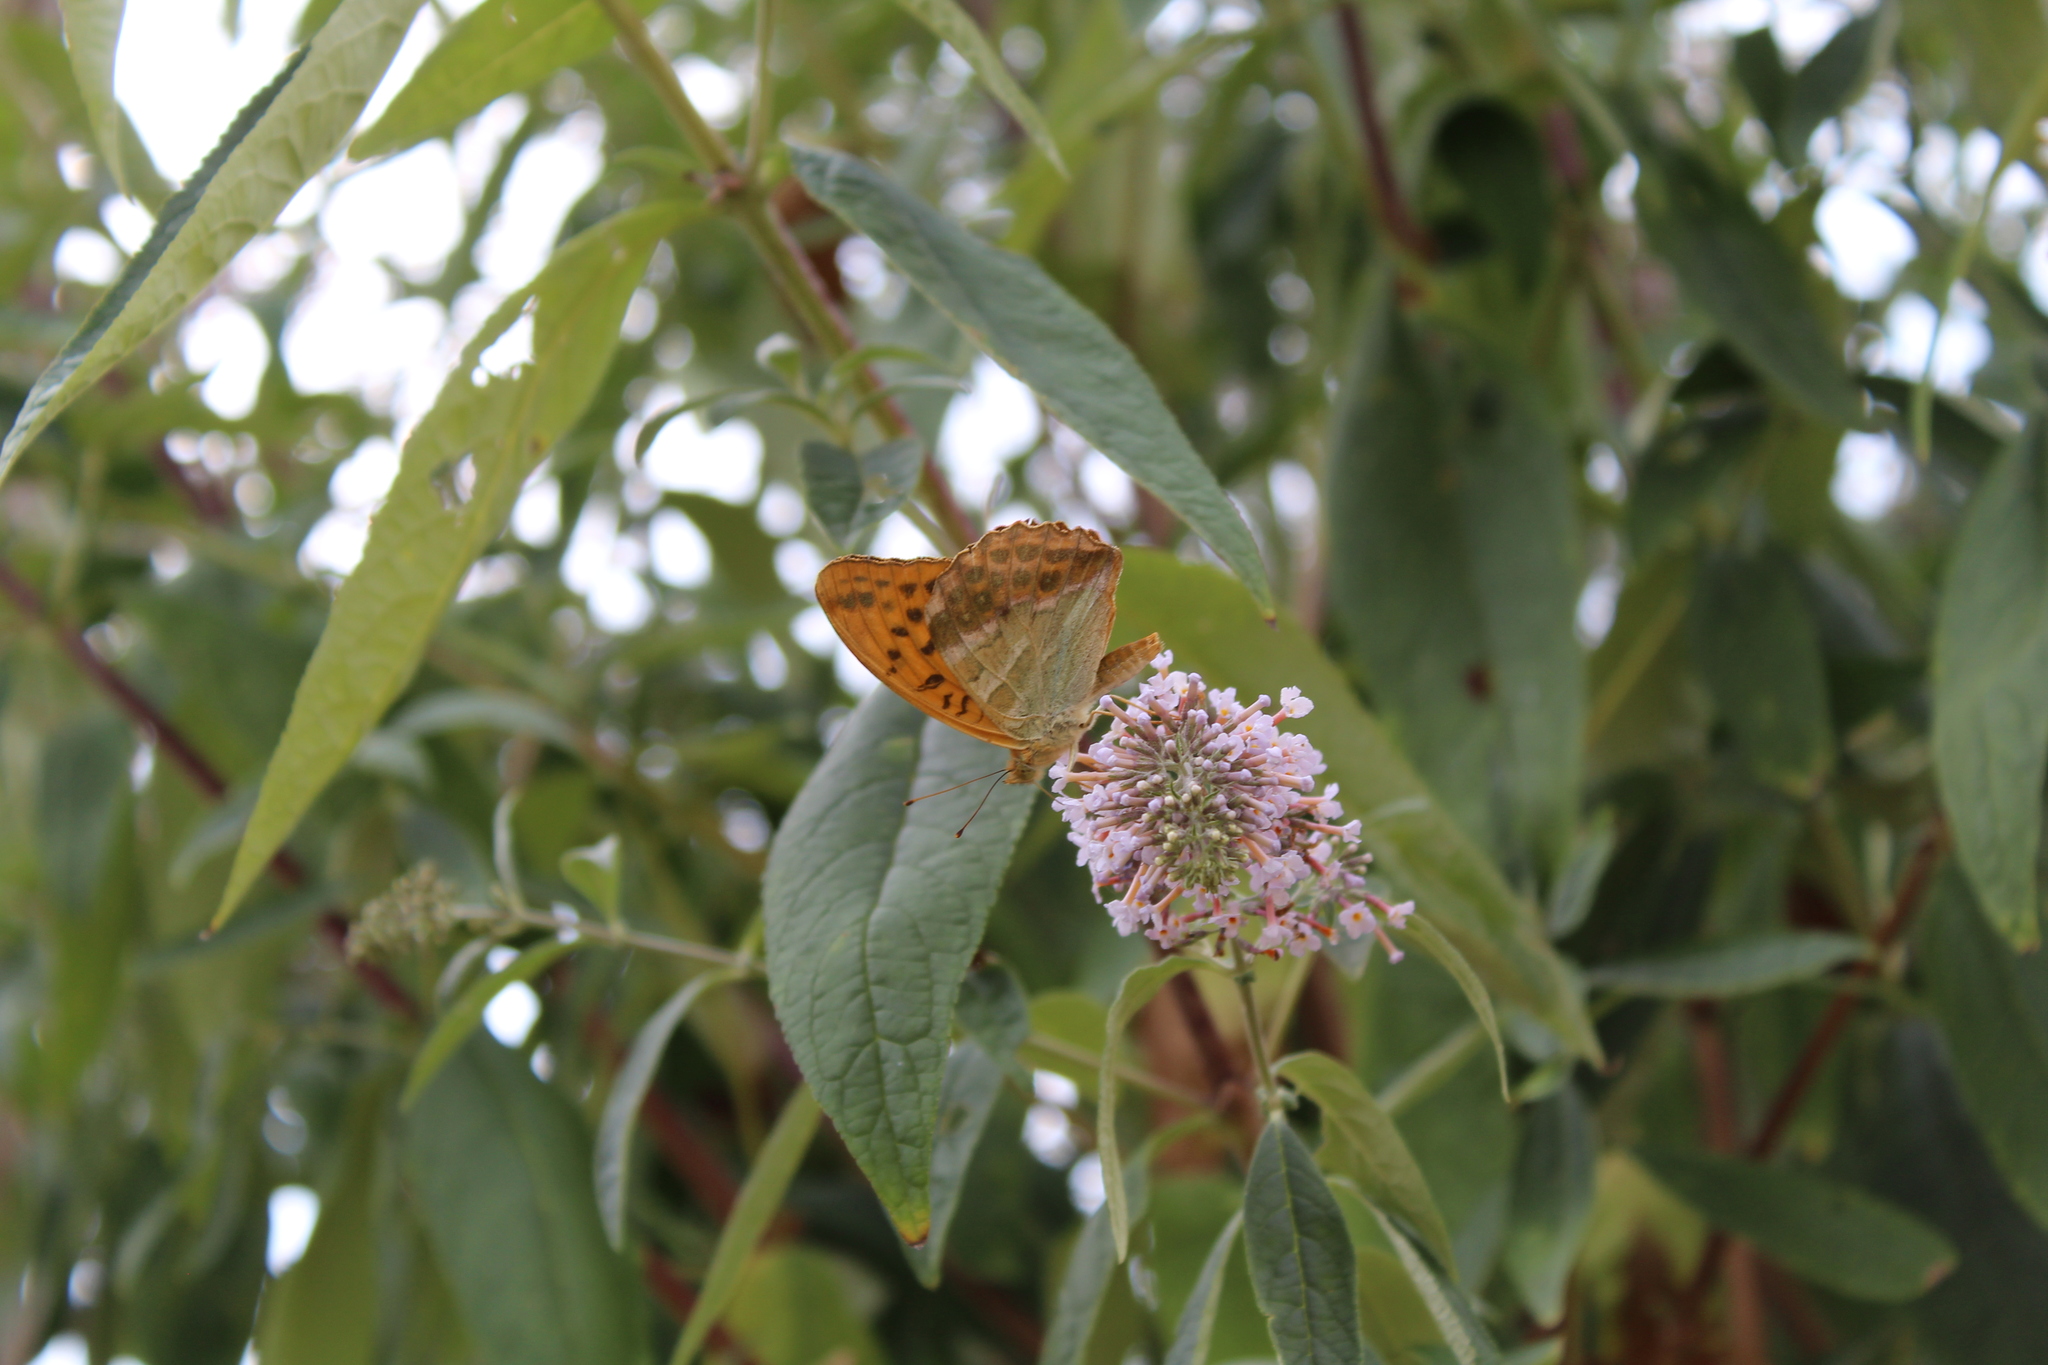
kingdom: Animalia
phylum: Arthropoda
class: Insecta
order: Lepidoptera
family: Nymphalidae
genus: Argynnis
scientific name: Argynnis paphia
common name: Silver-washed fritillary
